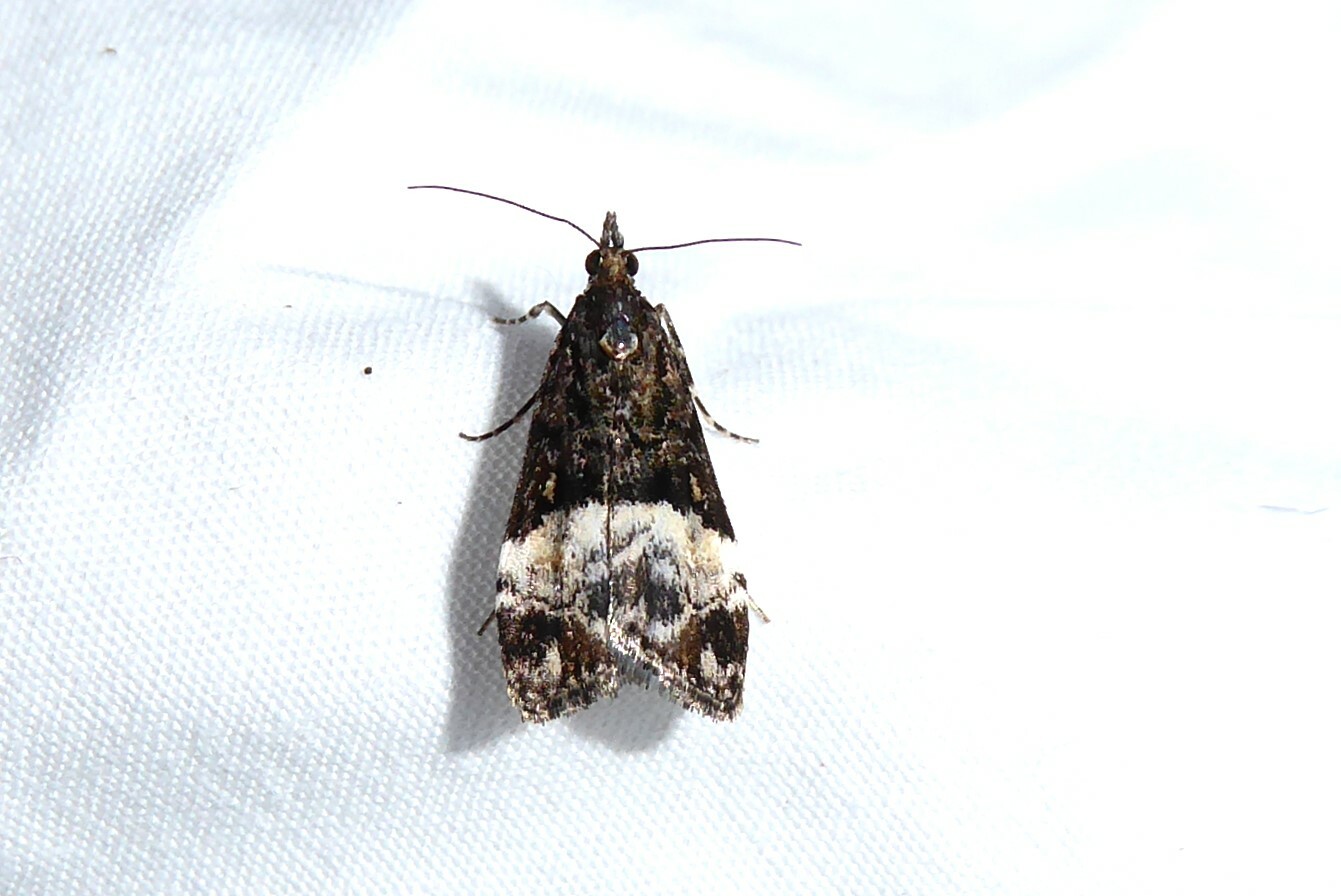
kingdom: Animalia
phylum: Arthropoda
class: Insecta
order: Lepidoptera
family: Crambidae
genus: Scoparia
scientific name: Scoparia minusculalis
